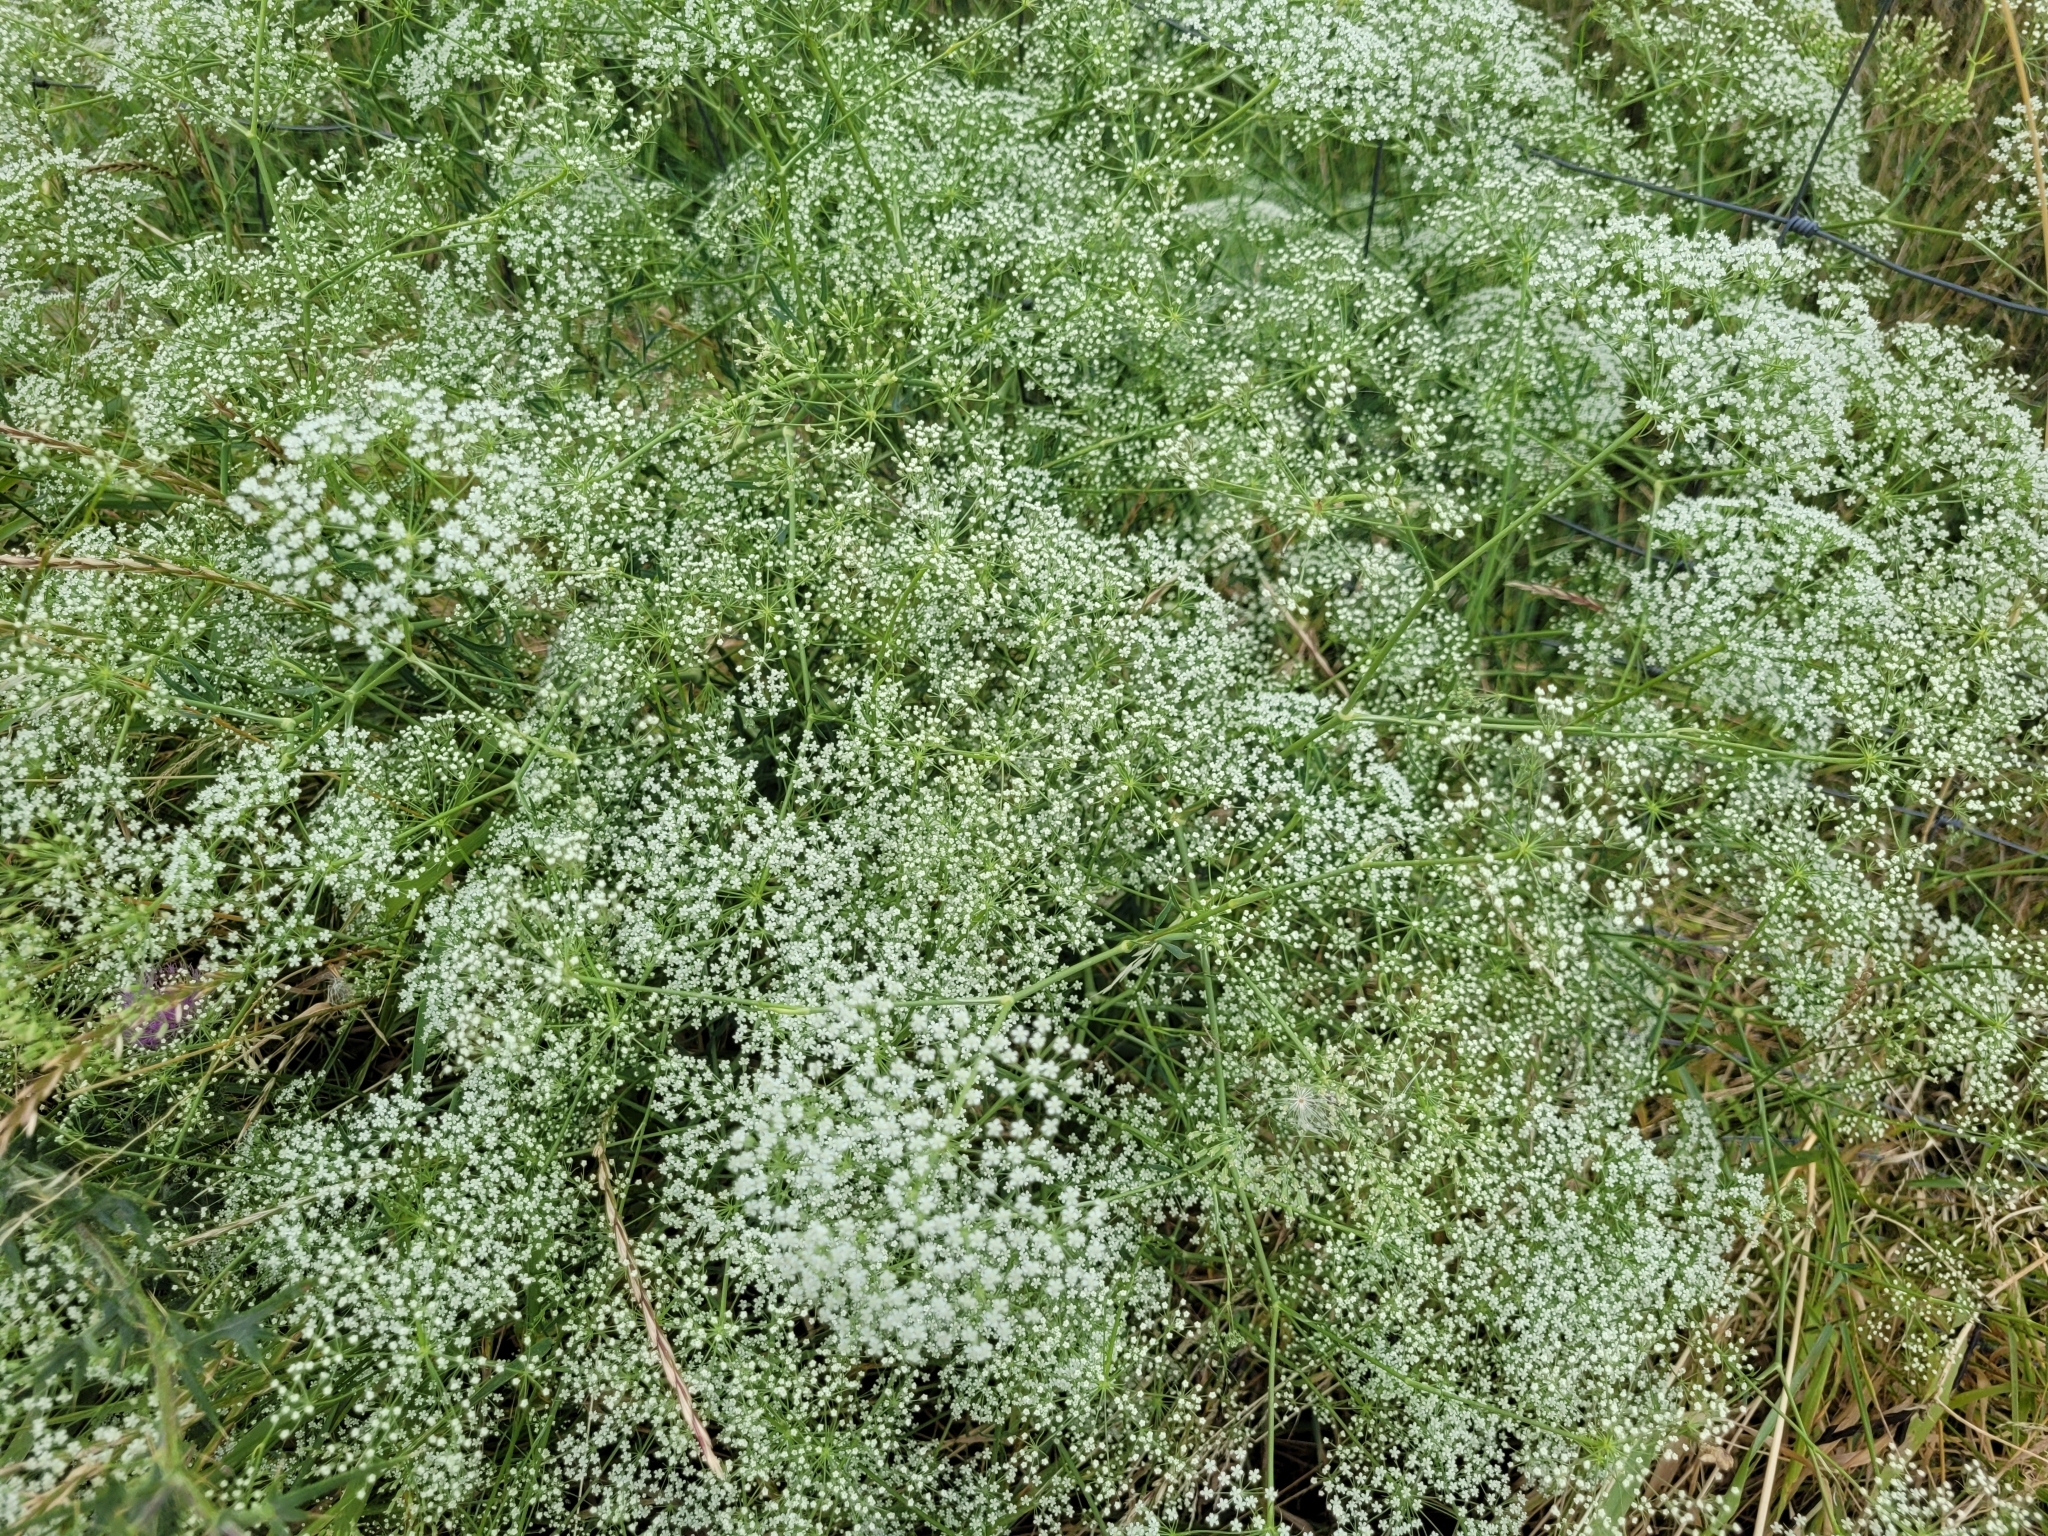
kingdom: Plantae
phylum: Tracheophyta
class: Magnoliopsida
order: Apiales
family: Apiaceae
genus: Falcaria
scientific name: Falcaria vulgaris
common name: Longleaf
